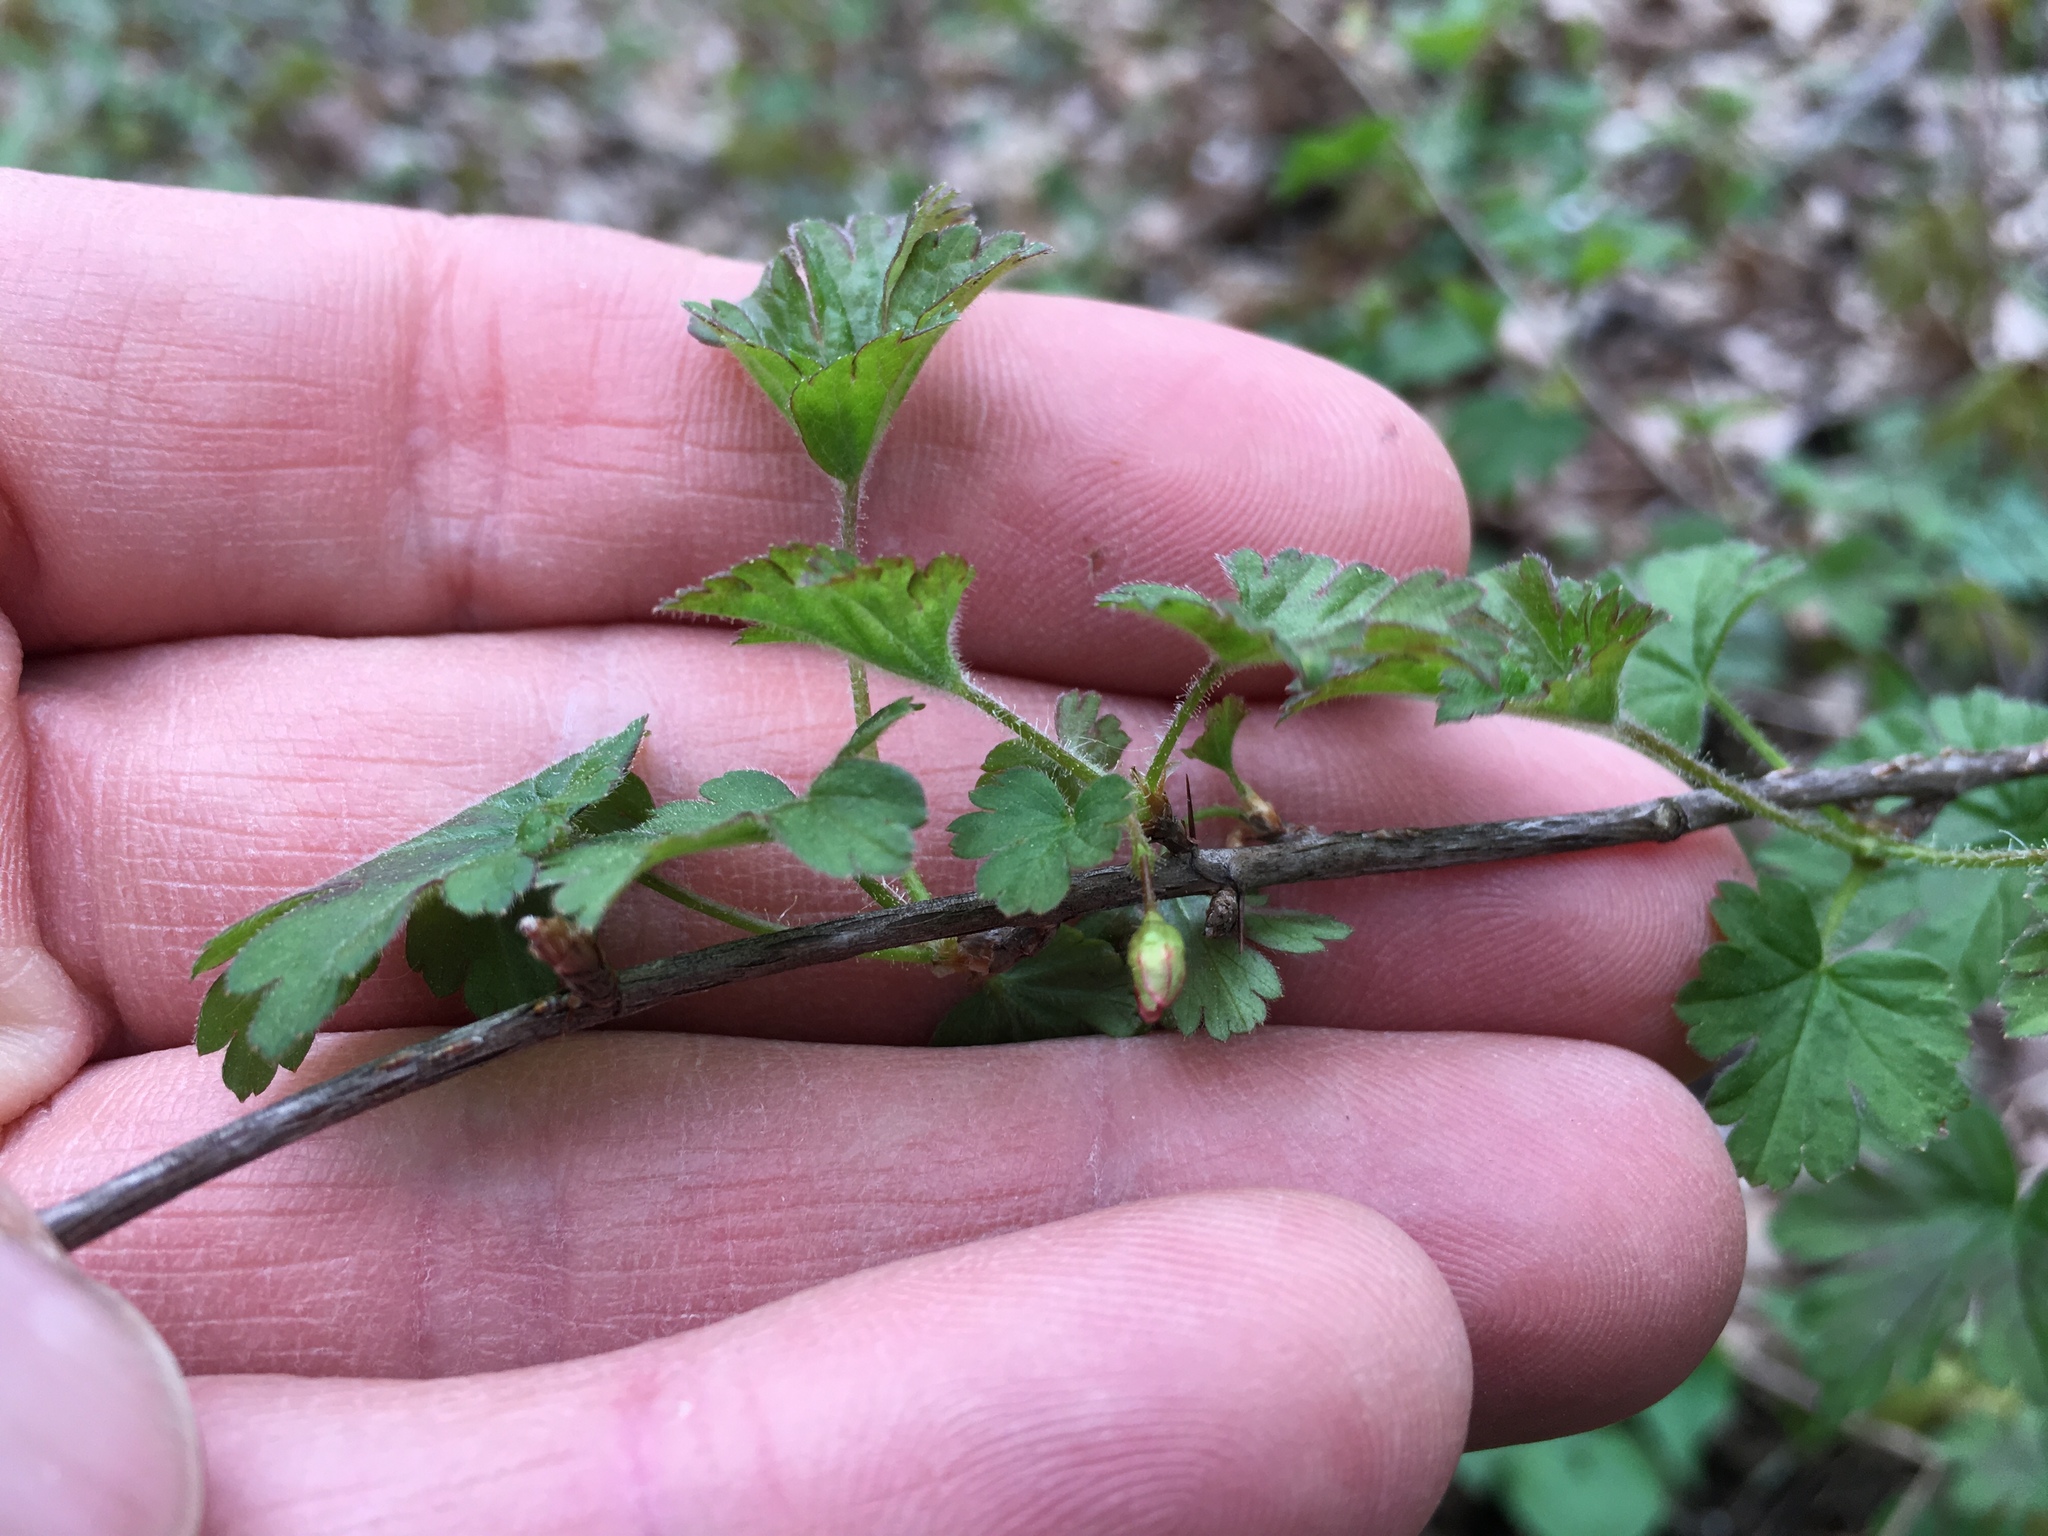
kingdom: Plantae
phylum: Tracheophyta
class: Magnoliopsida
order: Saxifragales
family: Grossulariaceae
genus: Ribes
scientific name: Ribes cynosbati
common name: American gooseberry
